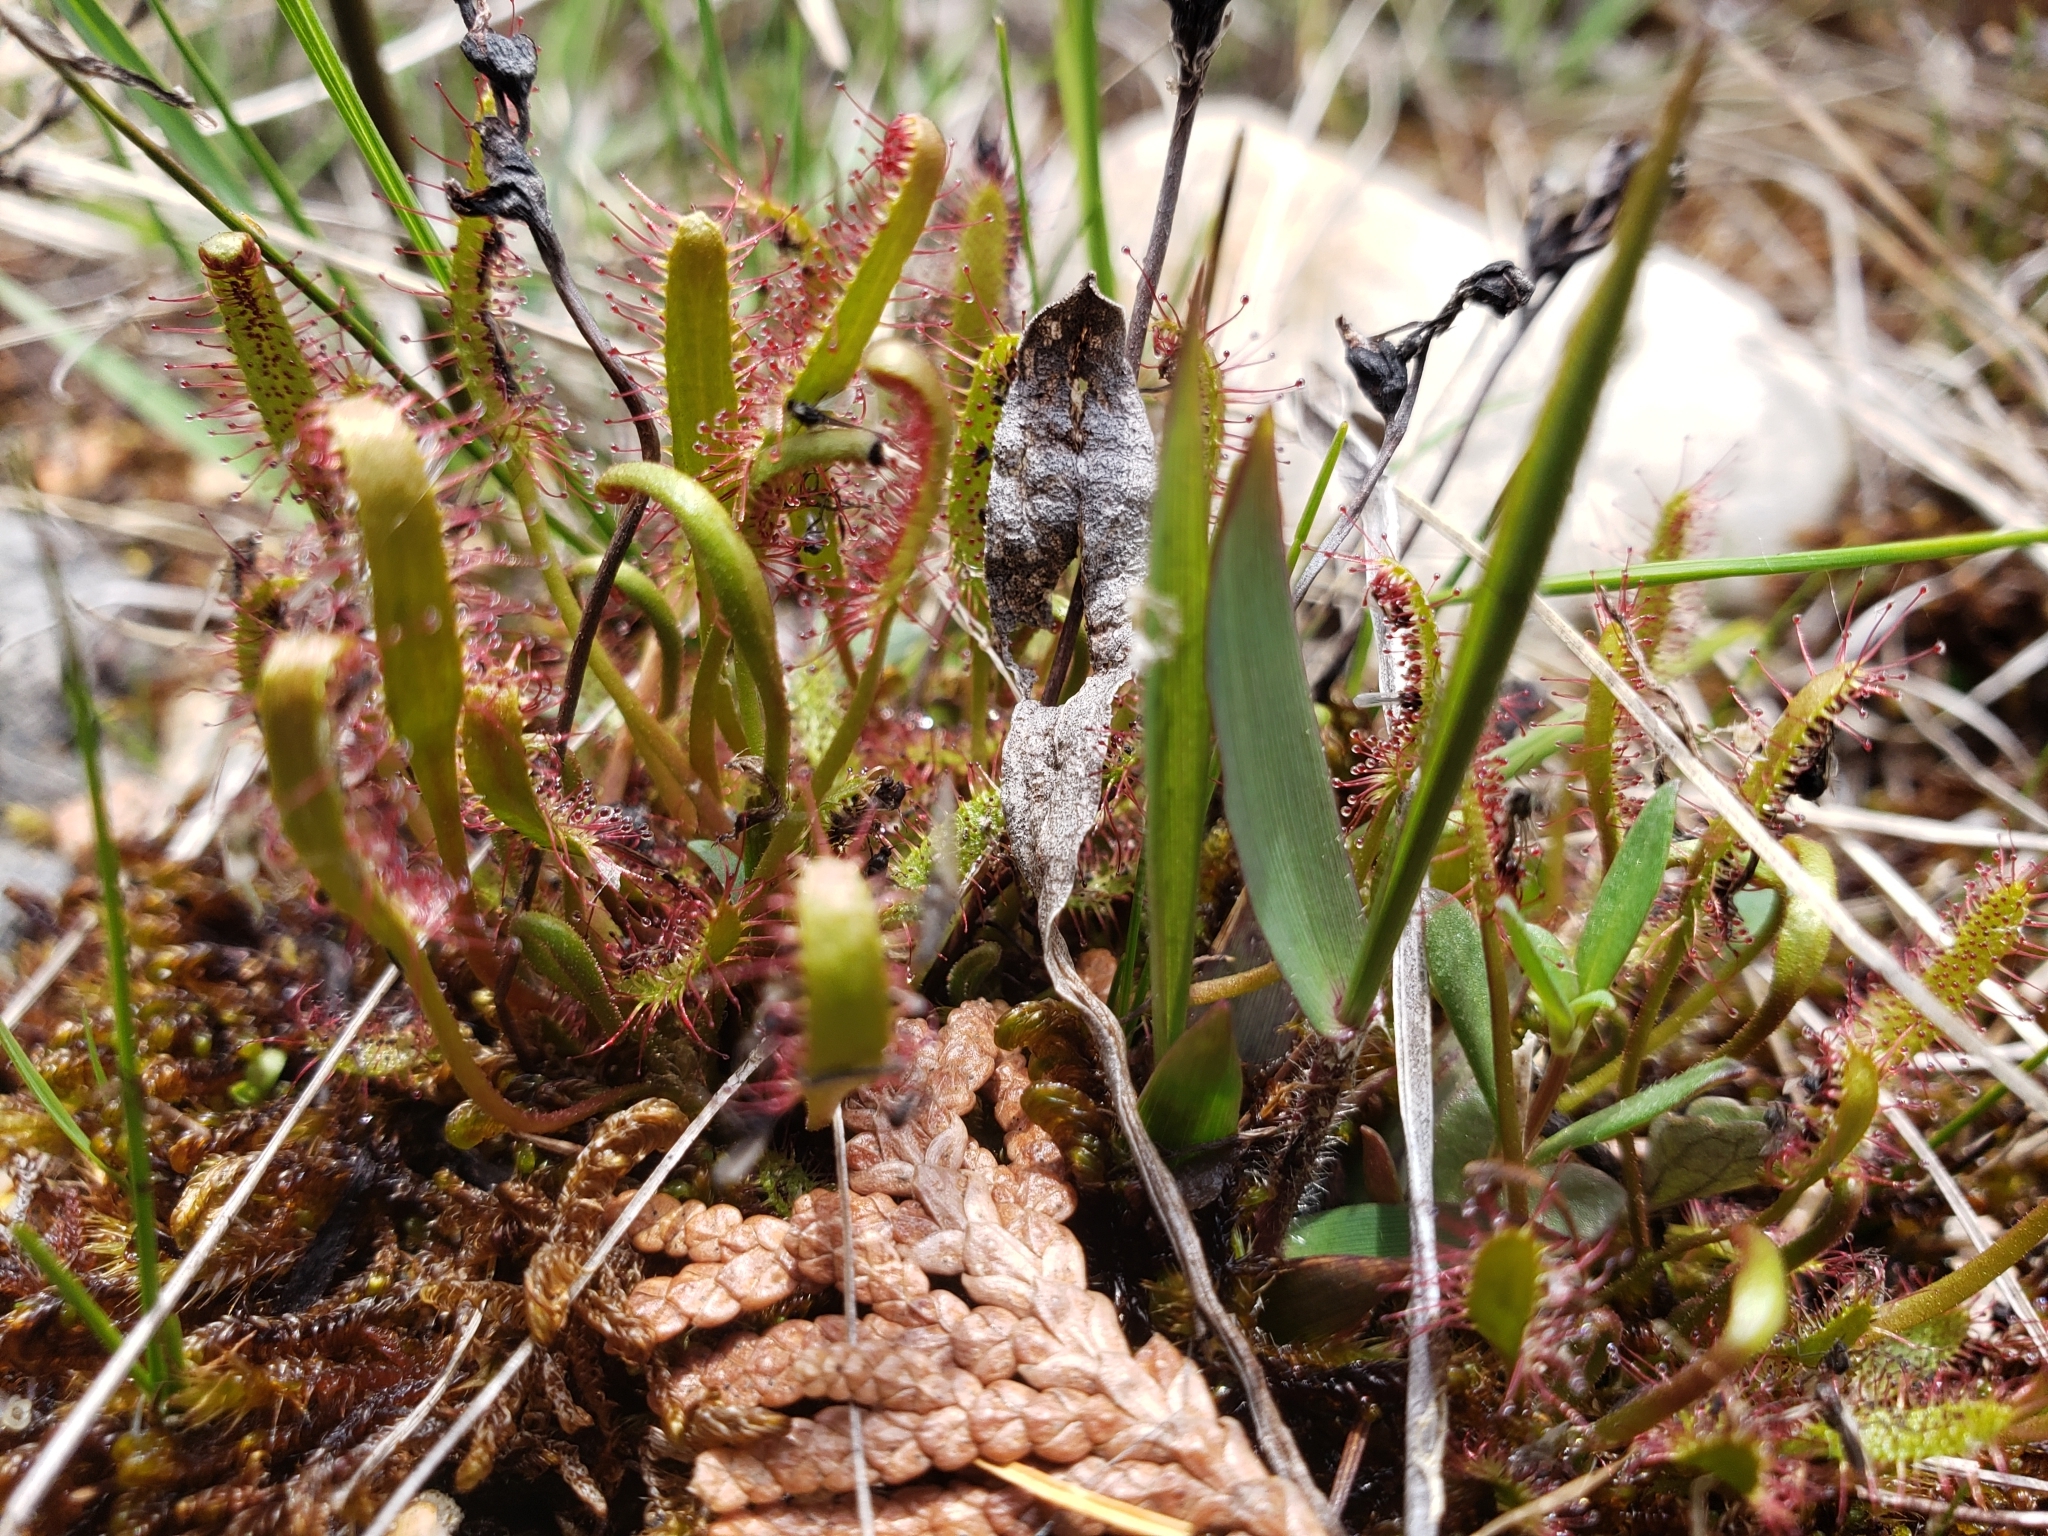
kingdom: Plantae
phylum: Tracheophyta
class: Magnoliopsida
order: Caryophyllales
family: Droseraceae
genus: Drosera
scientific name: Drosera linearis
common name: Linear-leaved sundew
